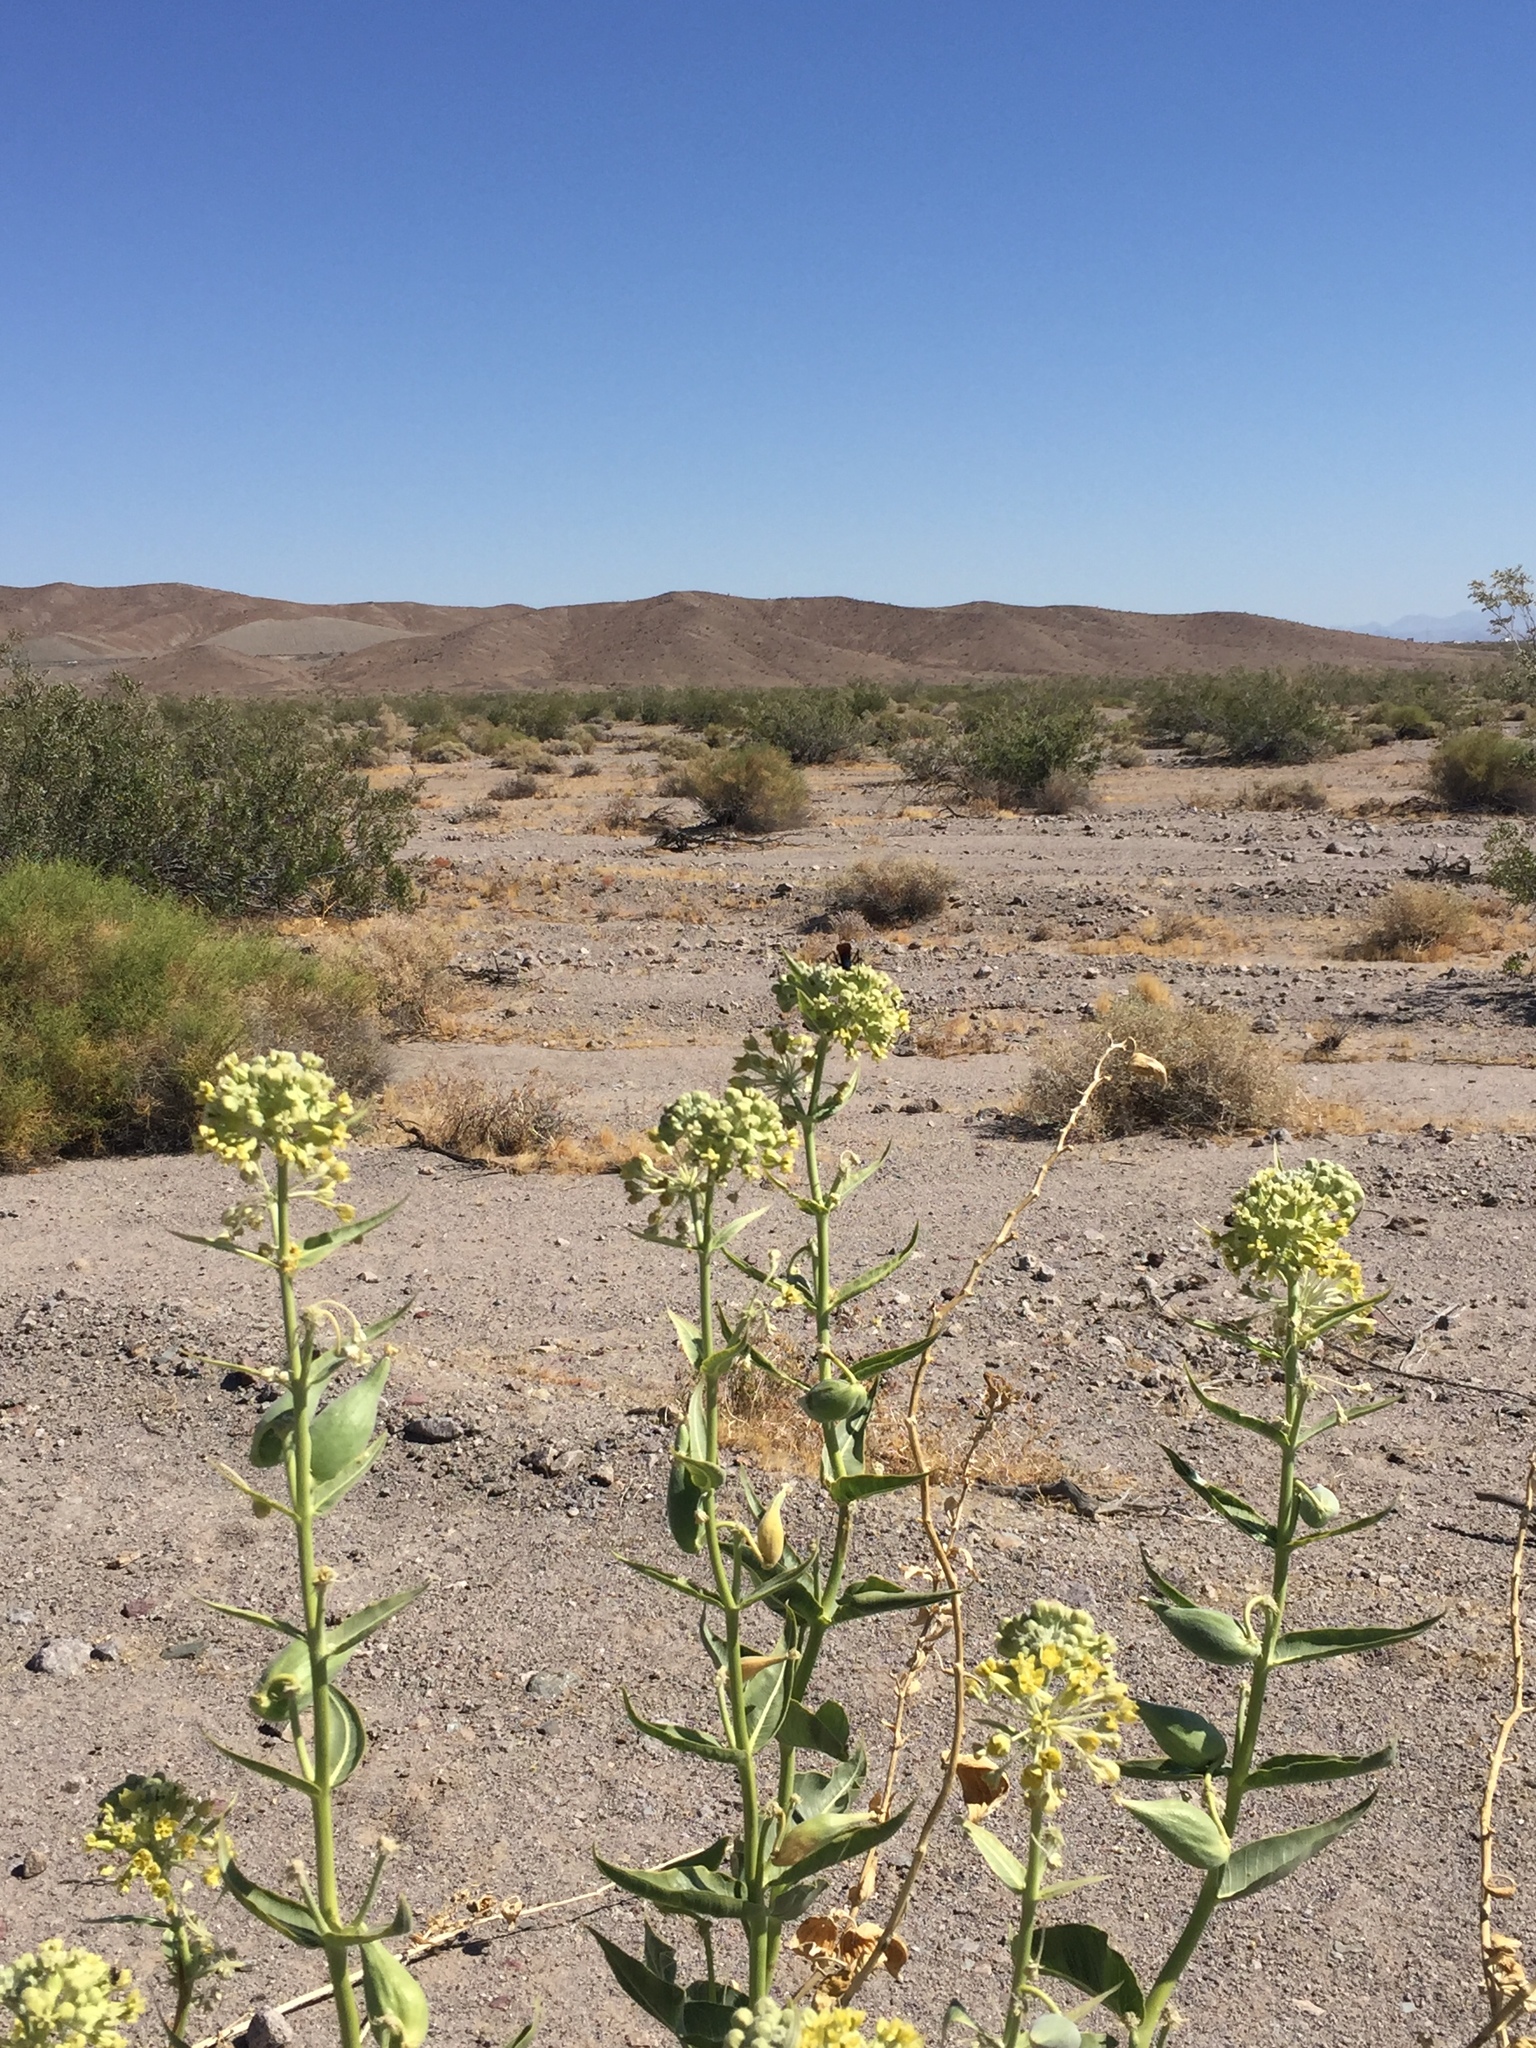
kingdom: Plantae
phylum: Tracheophyta
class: Magnoliopsida
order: Gentianales
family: Apocynaceae
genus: Asclepias
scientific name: Asclepias erosa
